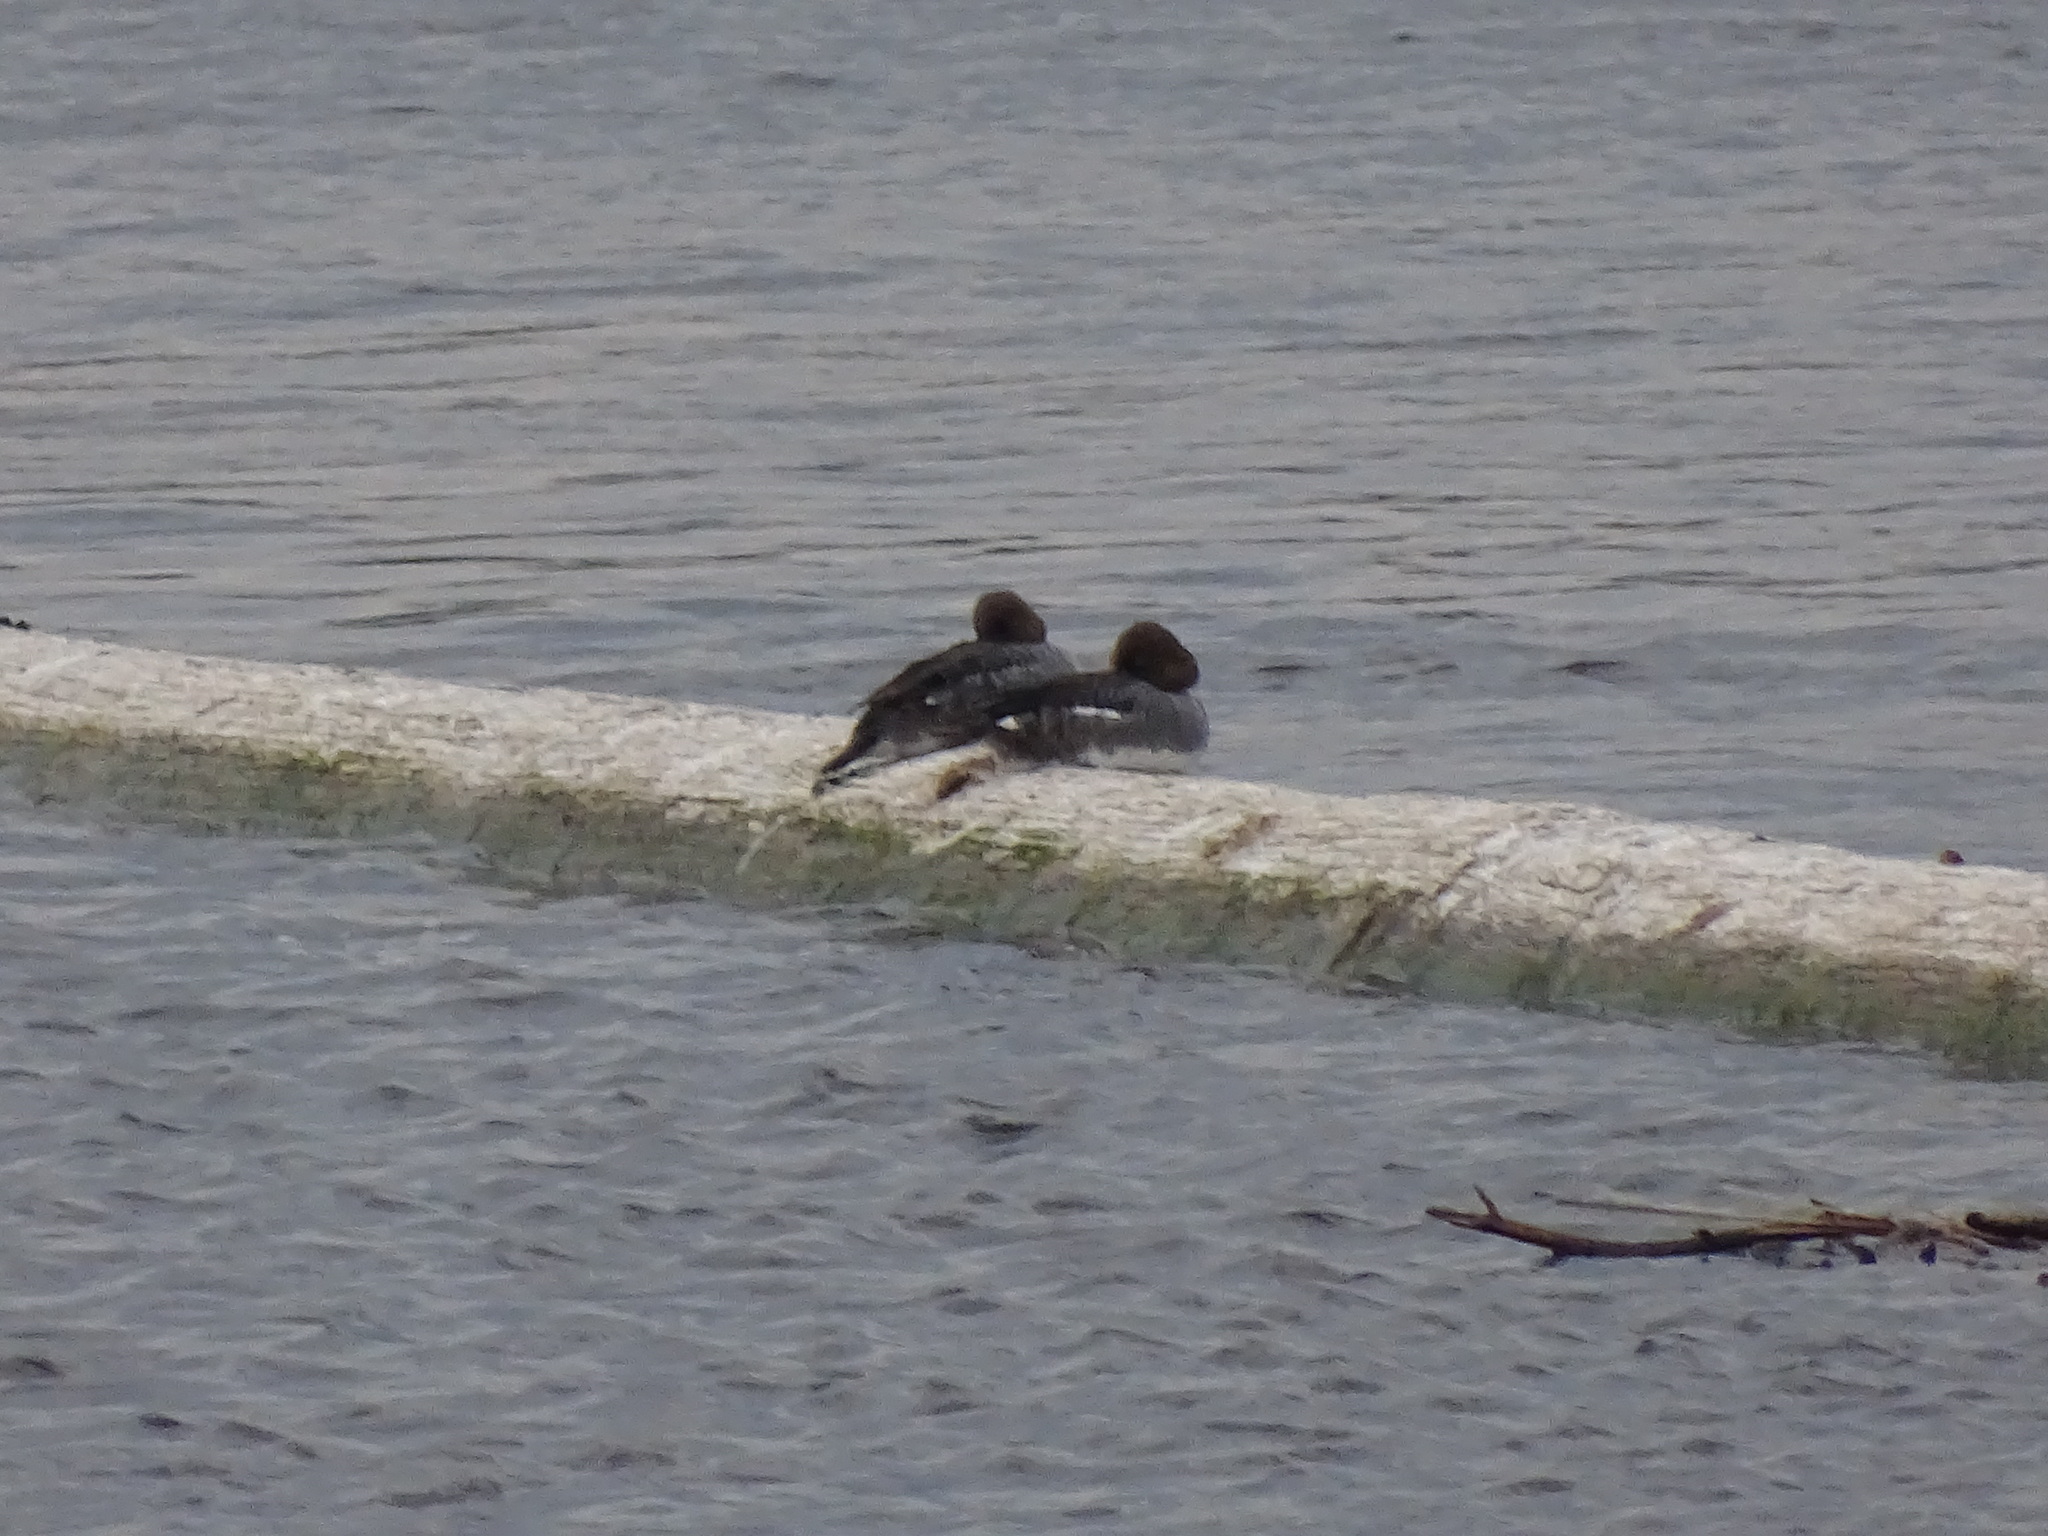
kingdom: Animalia
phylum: Chordata
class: Aves
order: Anseriformes
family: Anatidae
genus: Bucephala
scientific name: Bucephala clangula
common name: Common goldeneye
